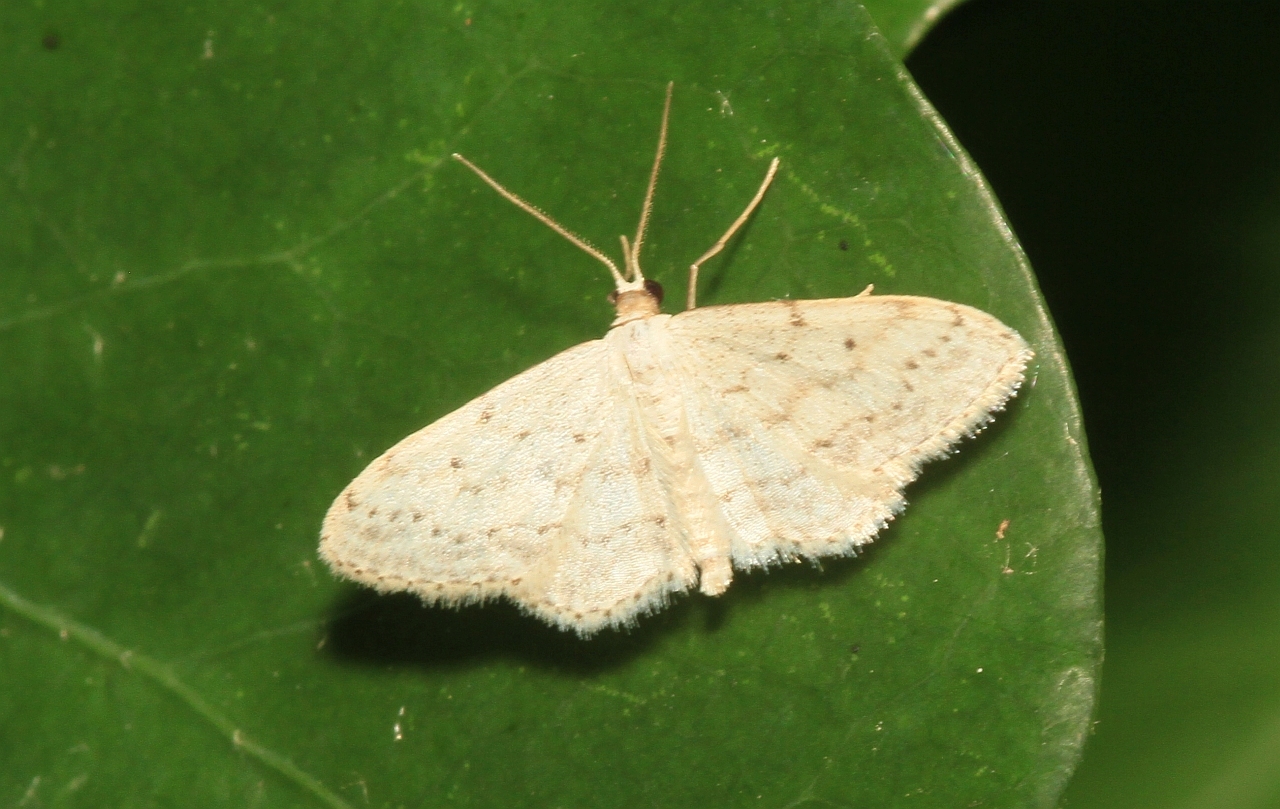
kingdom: Animalia
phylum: Arthropoda
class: Insecta
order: Lepidoptera
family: Geometridae
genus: Idaea
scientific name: Idaea seriata
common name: Small dusty wave
